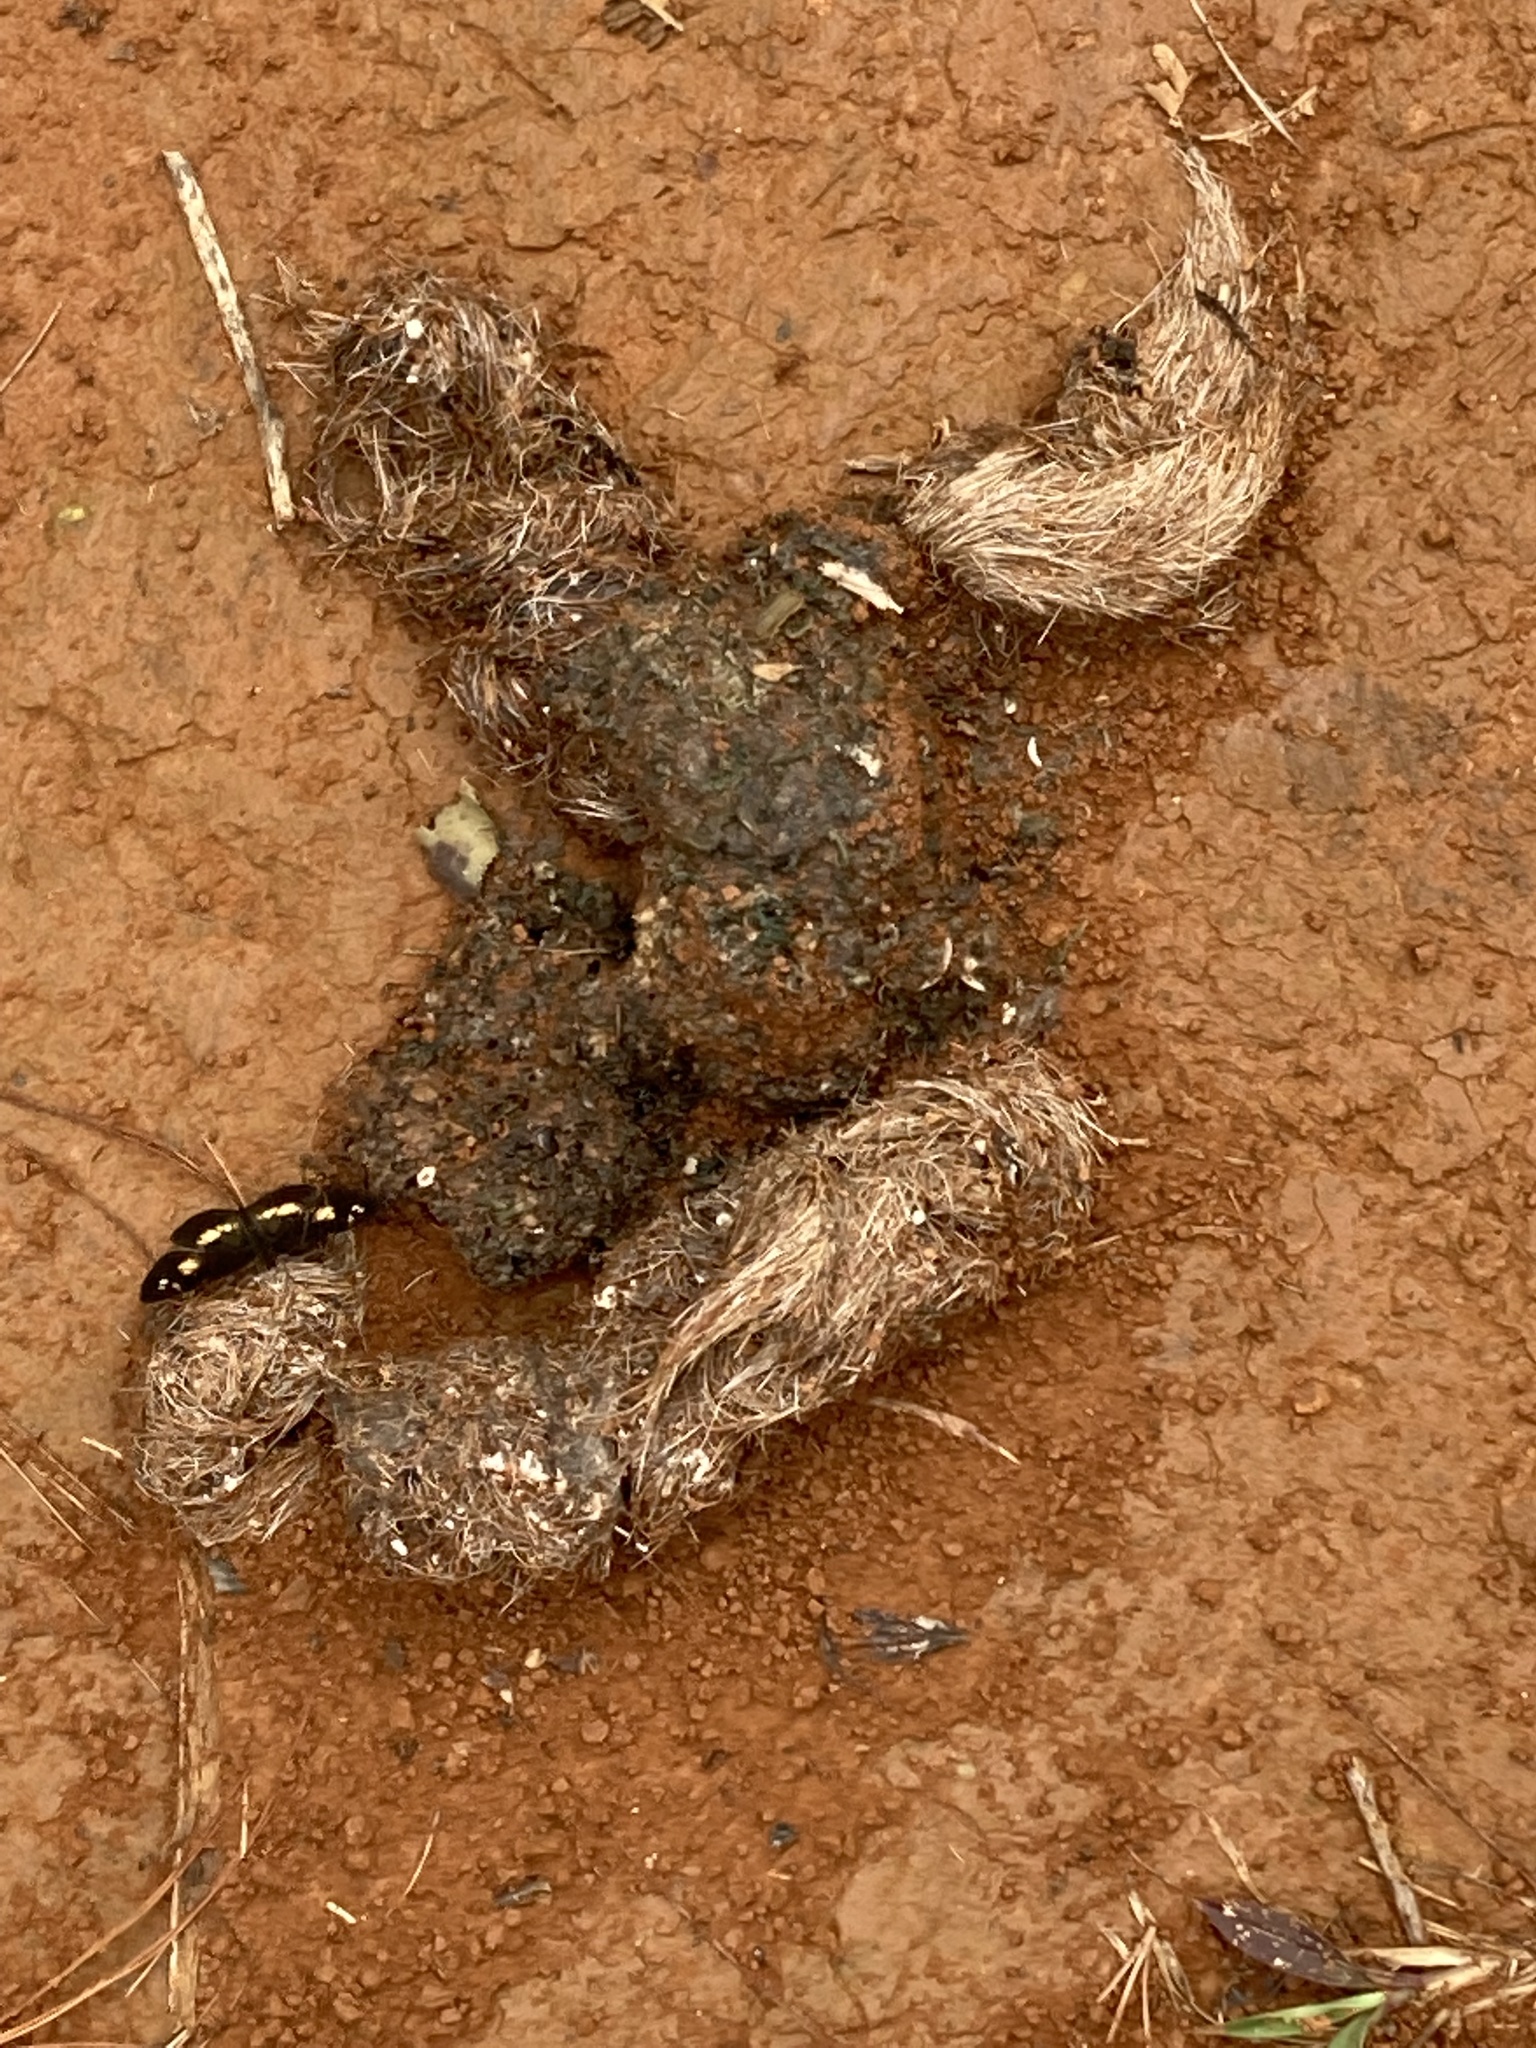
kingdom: Animalia
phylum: Chordata
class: Mammalia
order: Carnivora
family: Canidae
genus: Canis
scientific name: Canis latrans
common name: Coyote
